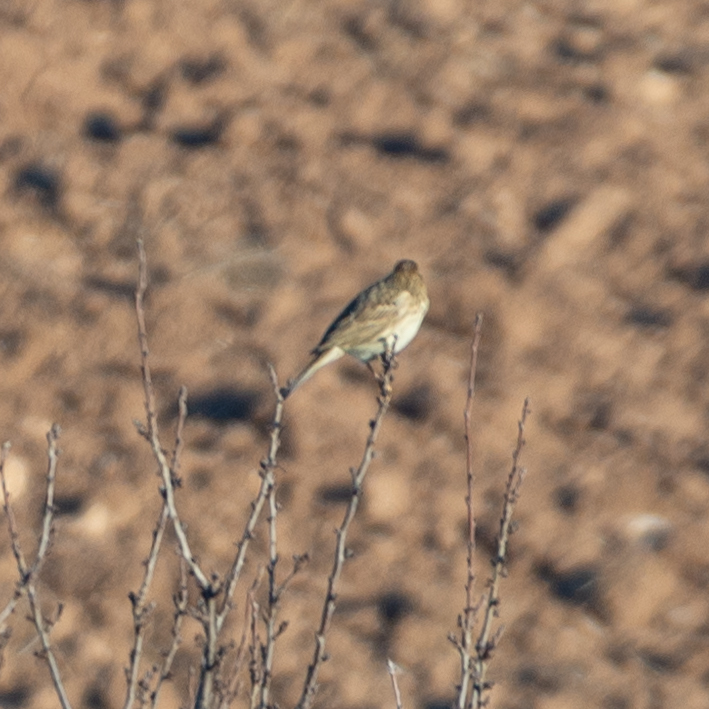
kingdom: Animalia
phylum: Chordata
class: Aves
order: Passeriformes
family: Emberizidae
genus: Emberiza
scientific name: Emberiza calandra
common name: Corn bunting
